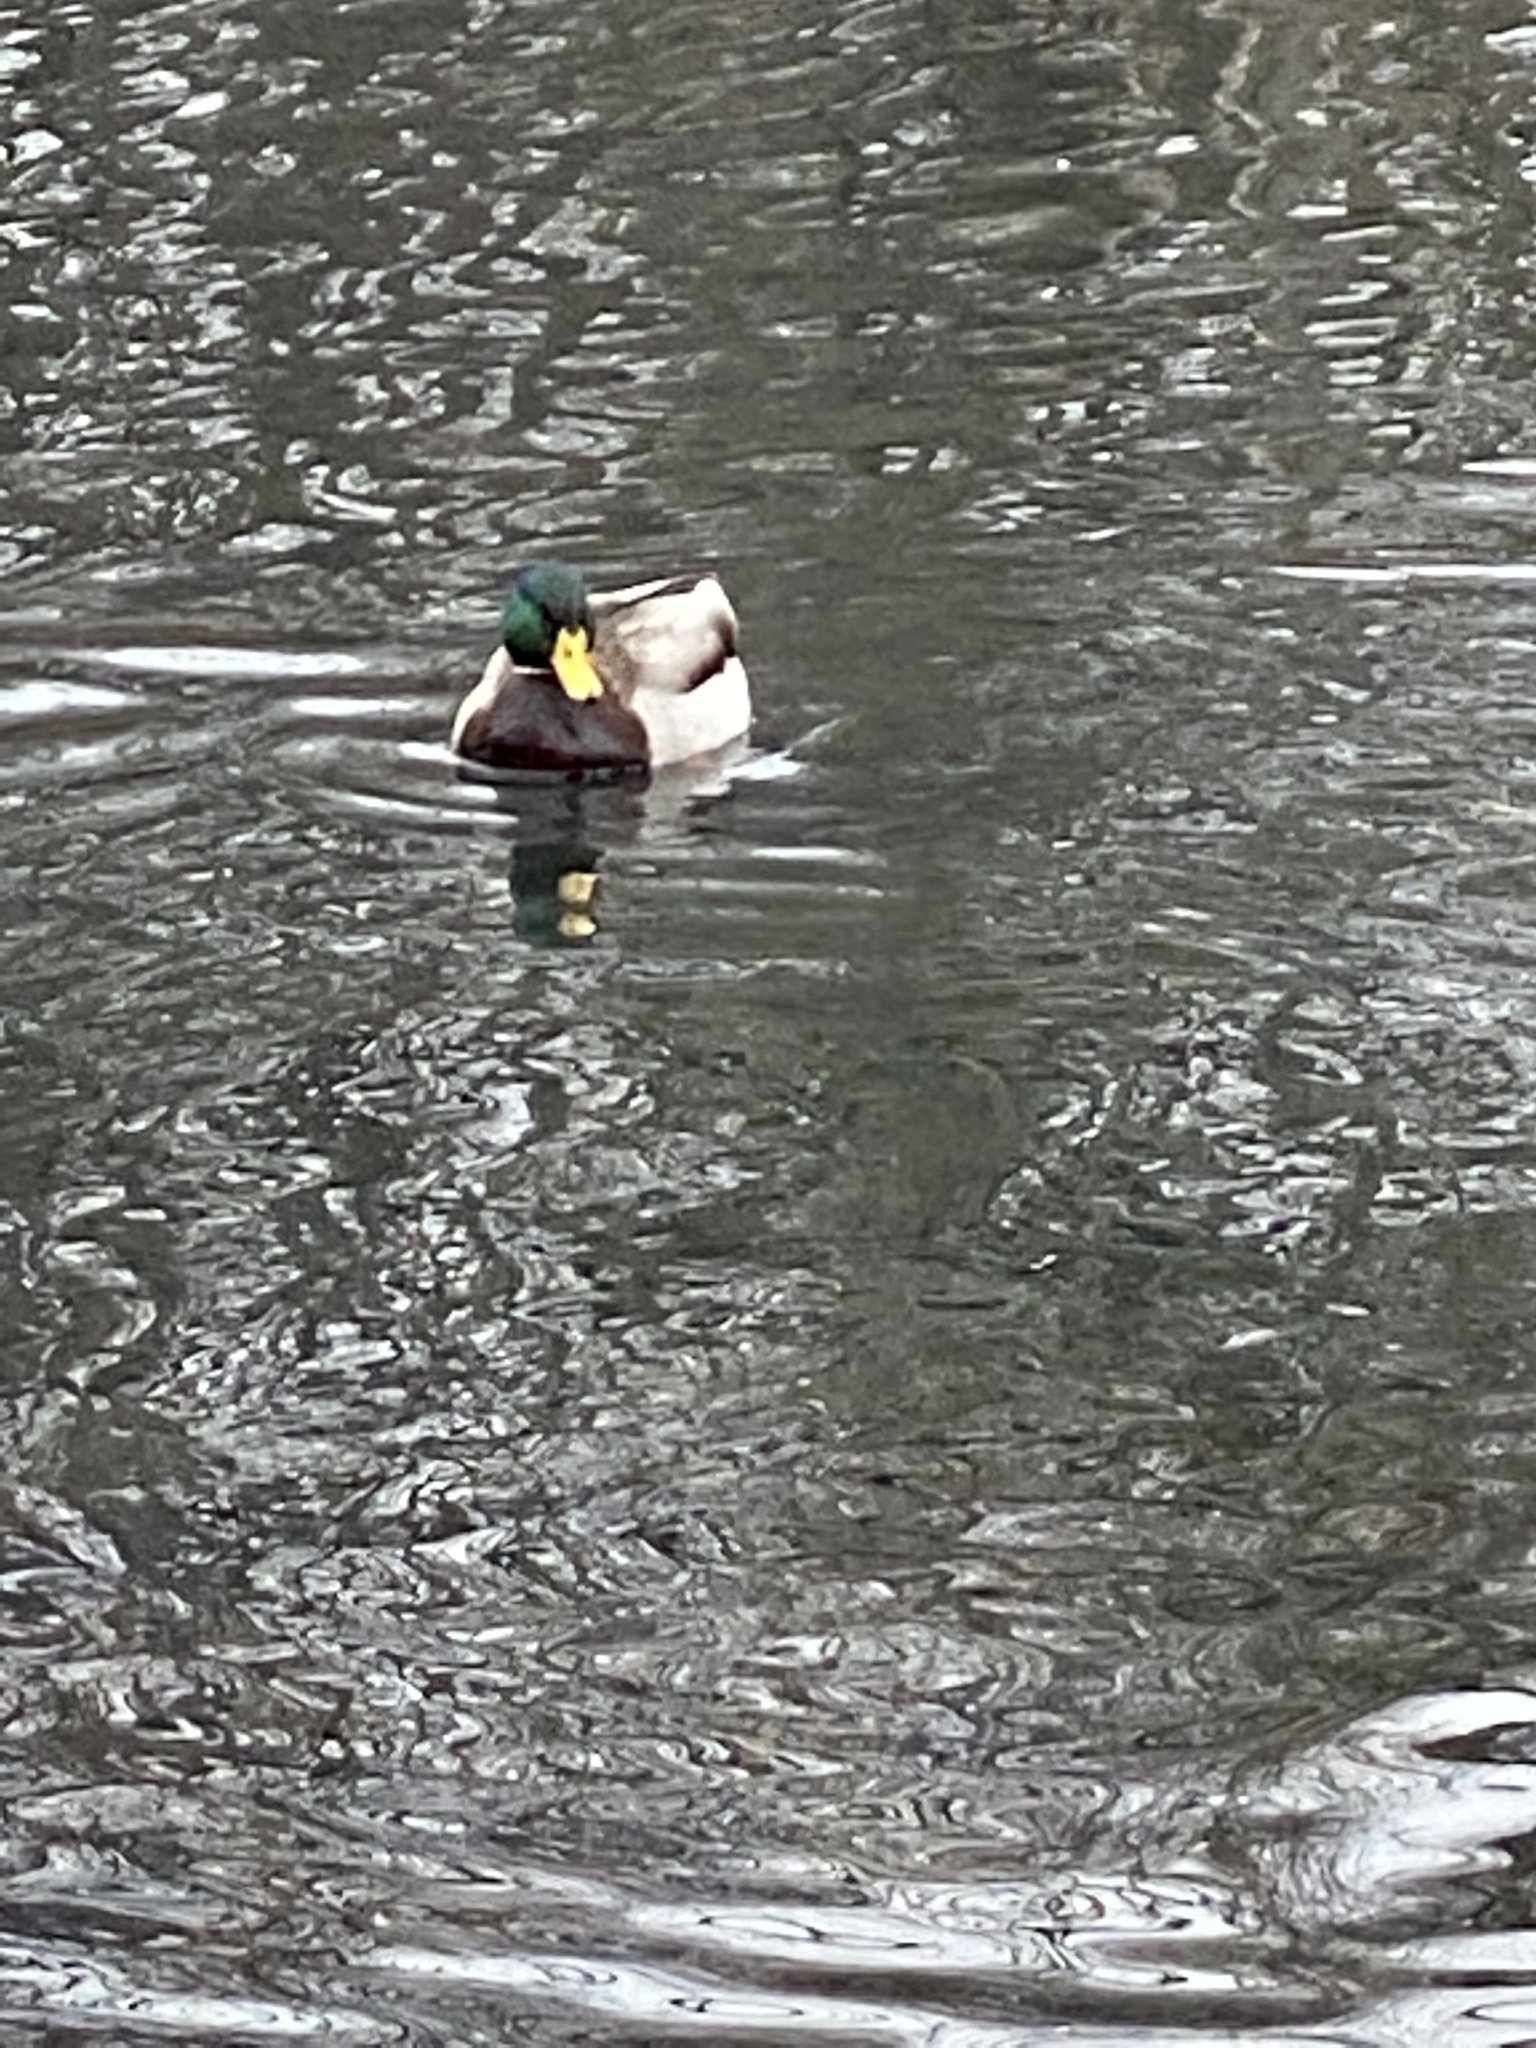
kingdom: Animalia
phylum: Chordata
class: Aves
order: Anseriformes
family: Anatidae
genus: Anas
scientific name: Anas platyrhynchos
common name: Mallard
